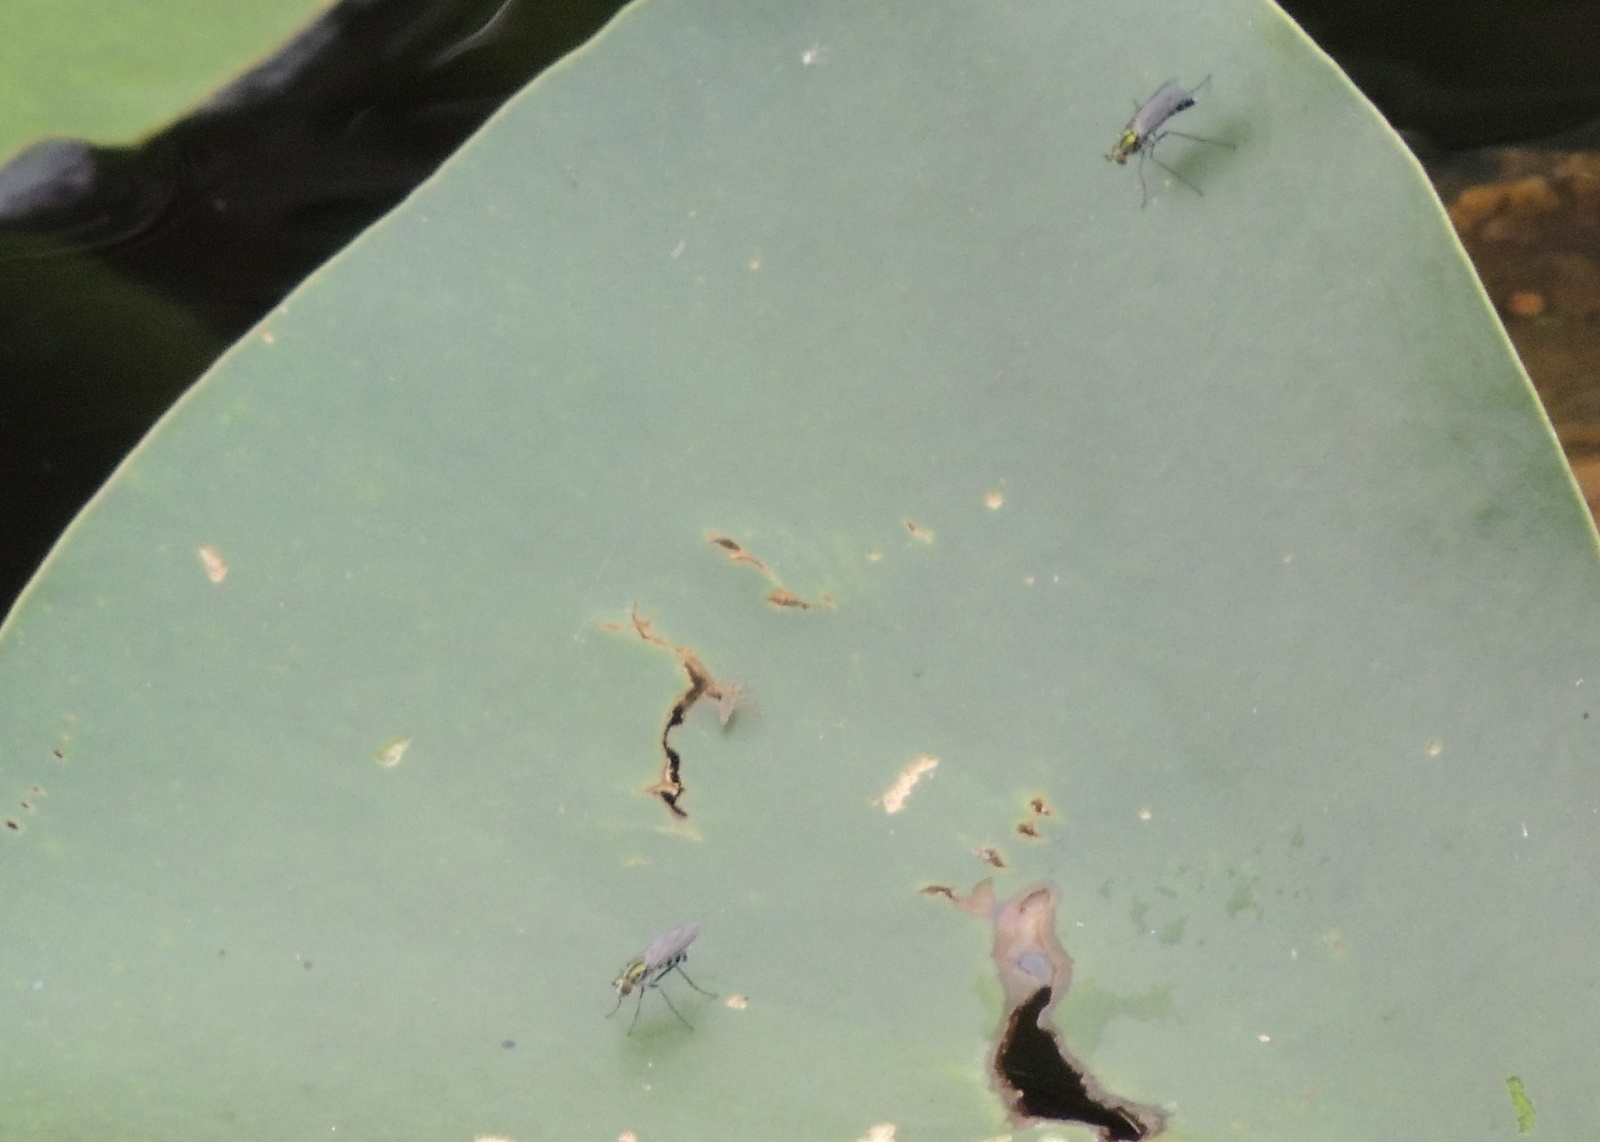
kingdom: Animalia
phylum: Arthropoda
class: Insecta
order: Diptera
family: Dolichopodidae
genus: Plagioneurus
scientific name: Plagioneurus univittatus
